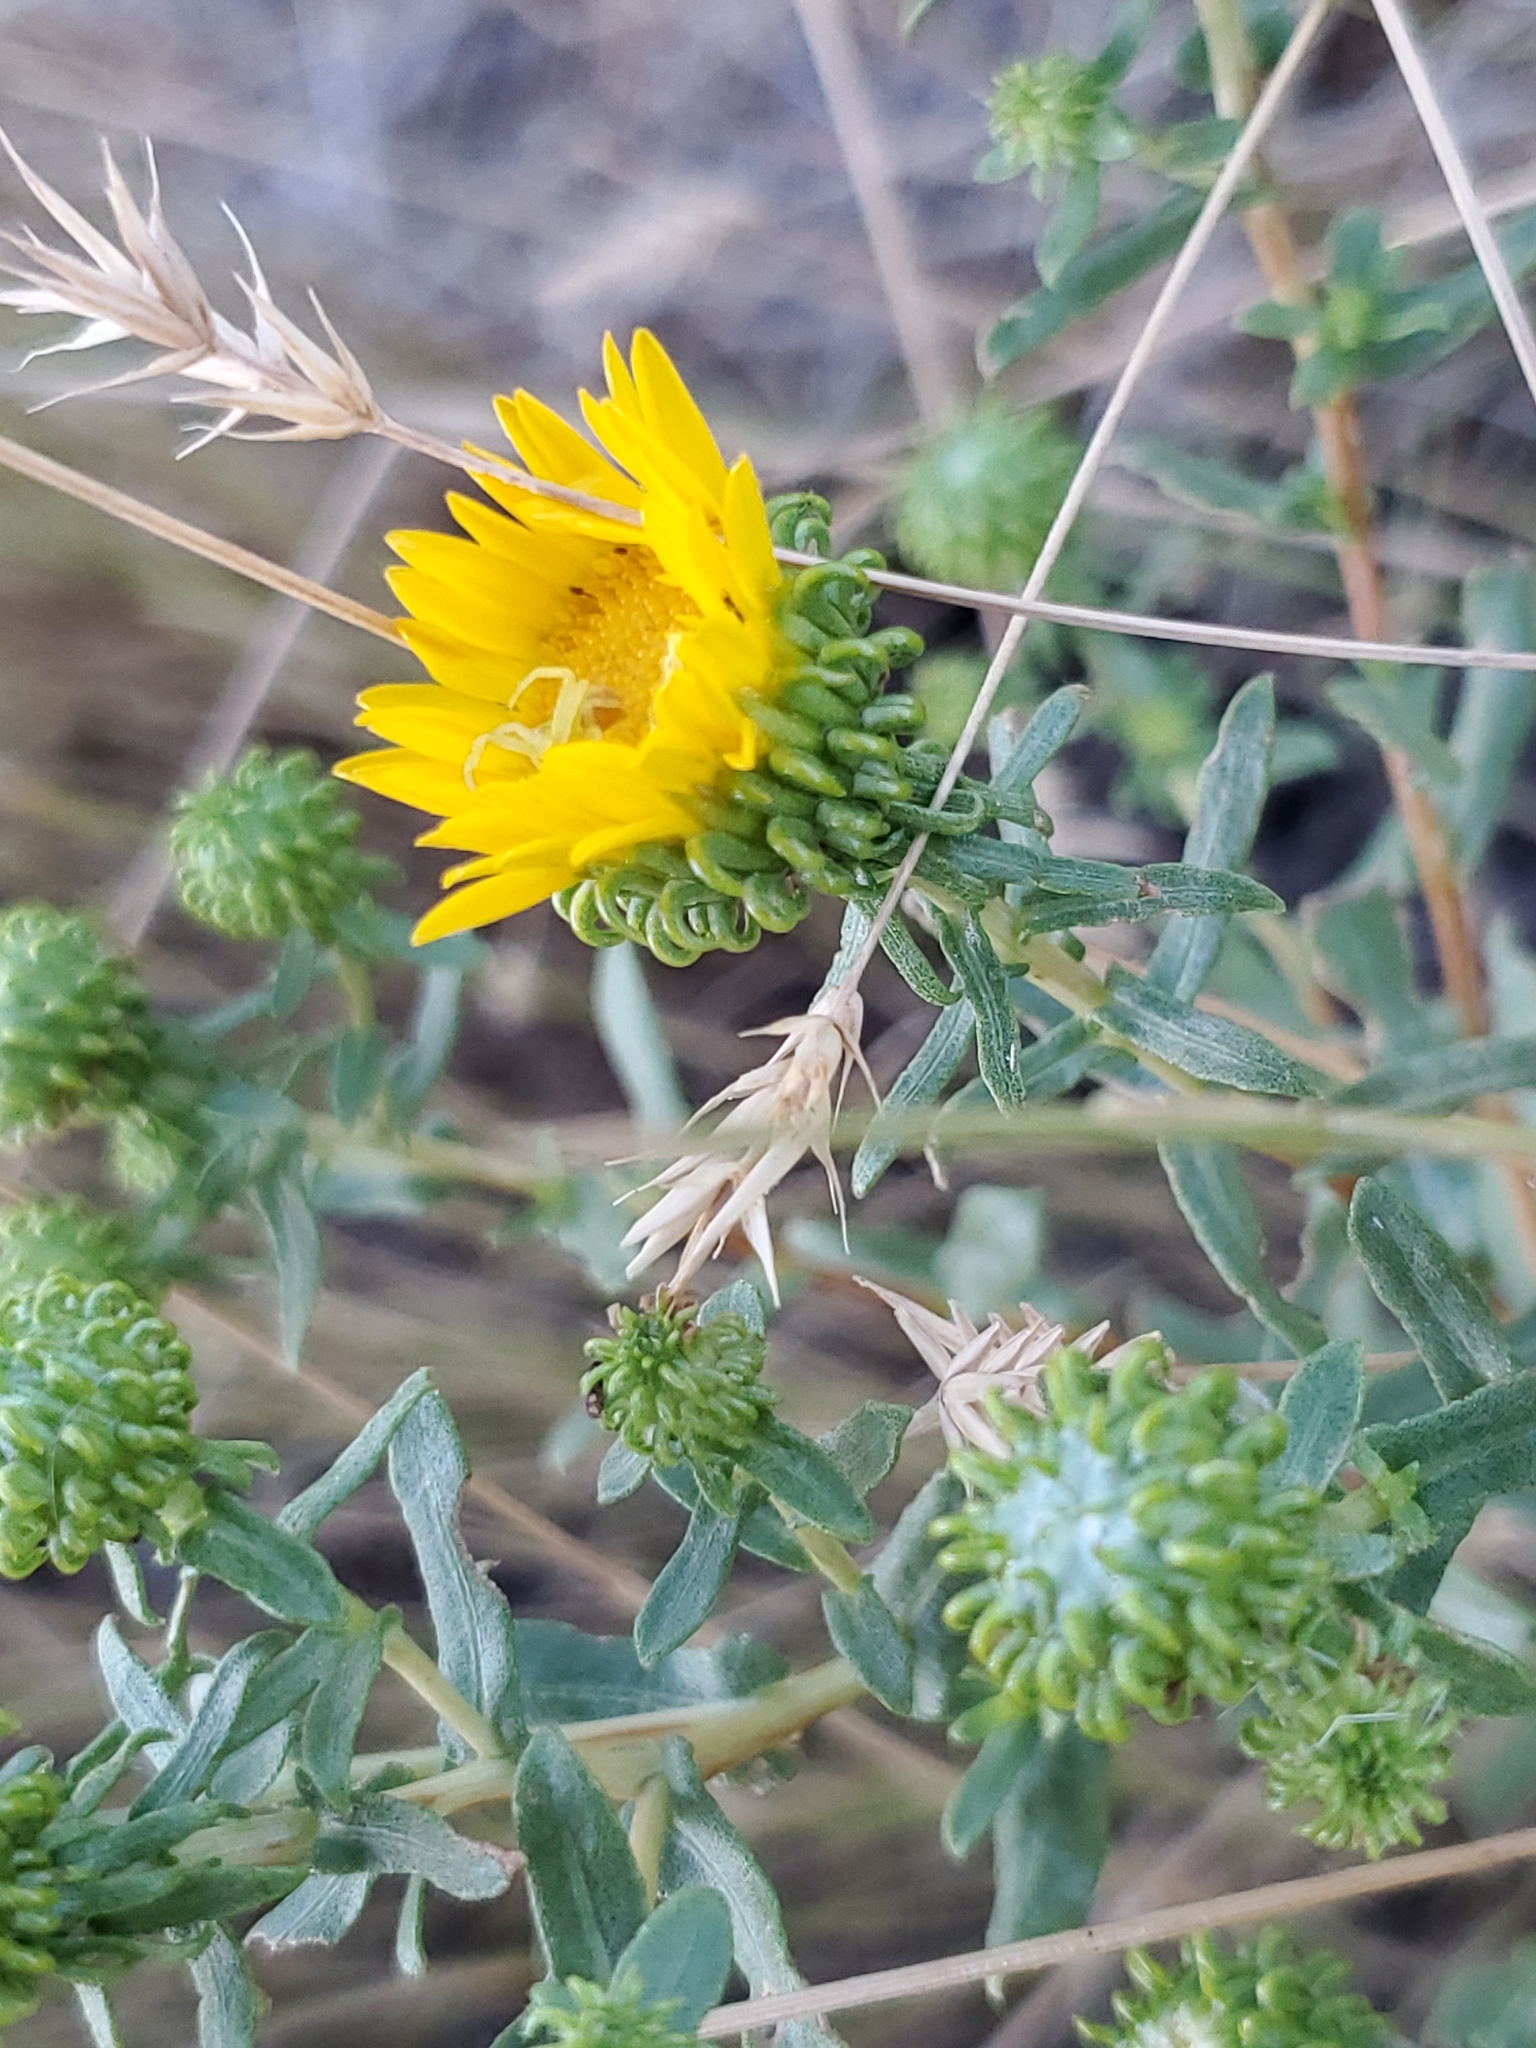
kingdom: Plantae
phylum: Tracheophyta
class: Magnoliopsida
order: Asterales
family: Asteraceae
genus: Grindelia
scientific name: Grindelia squarrosa
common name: Curly-cup gumweed
